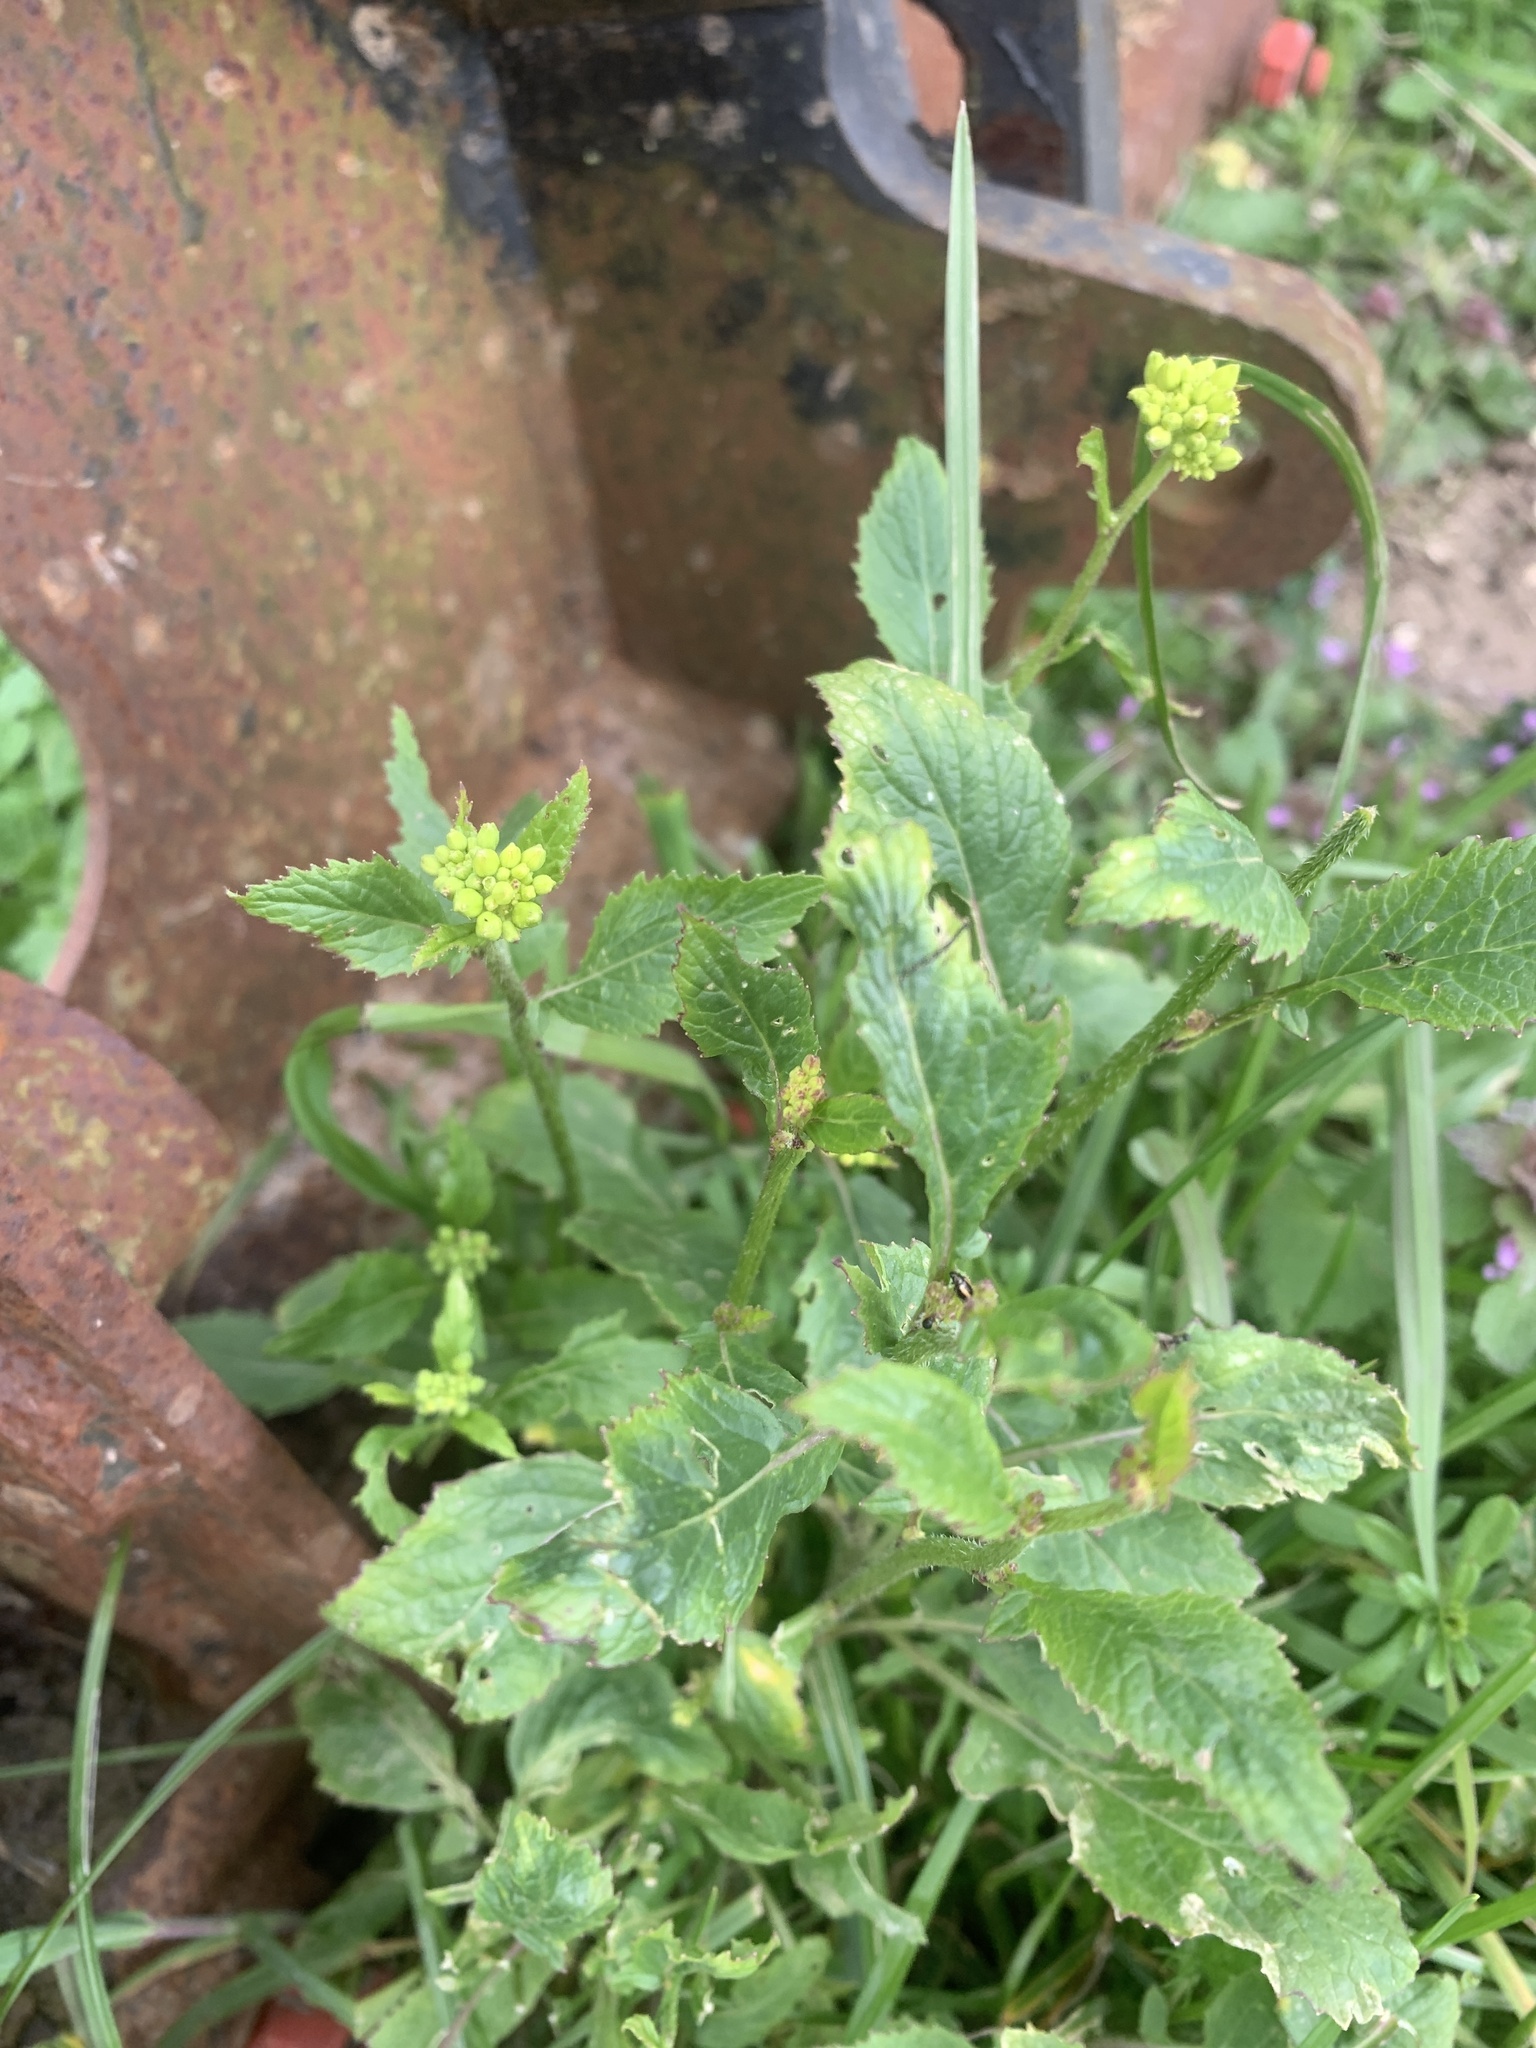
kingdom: Plantae
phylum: Tracheophyta
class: Magnoliopsida
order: Brassicales
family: Brassicaceae
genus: Sinapis
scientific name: Sinapis arvensis
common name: Charlock
